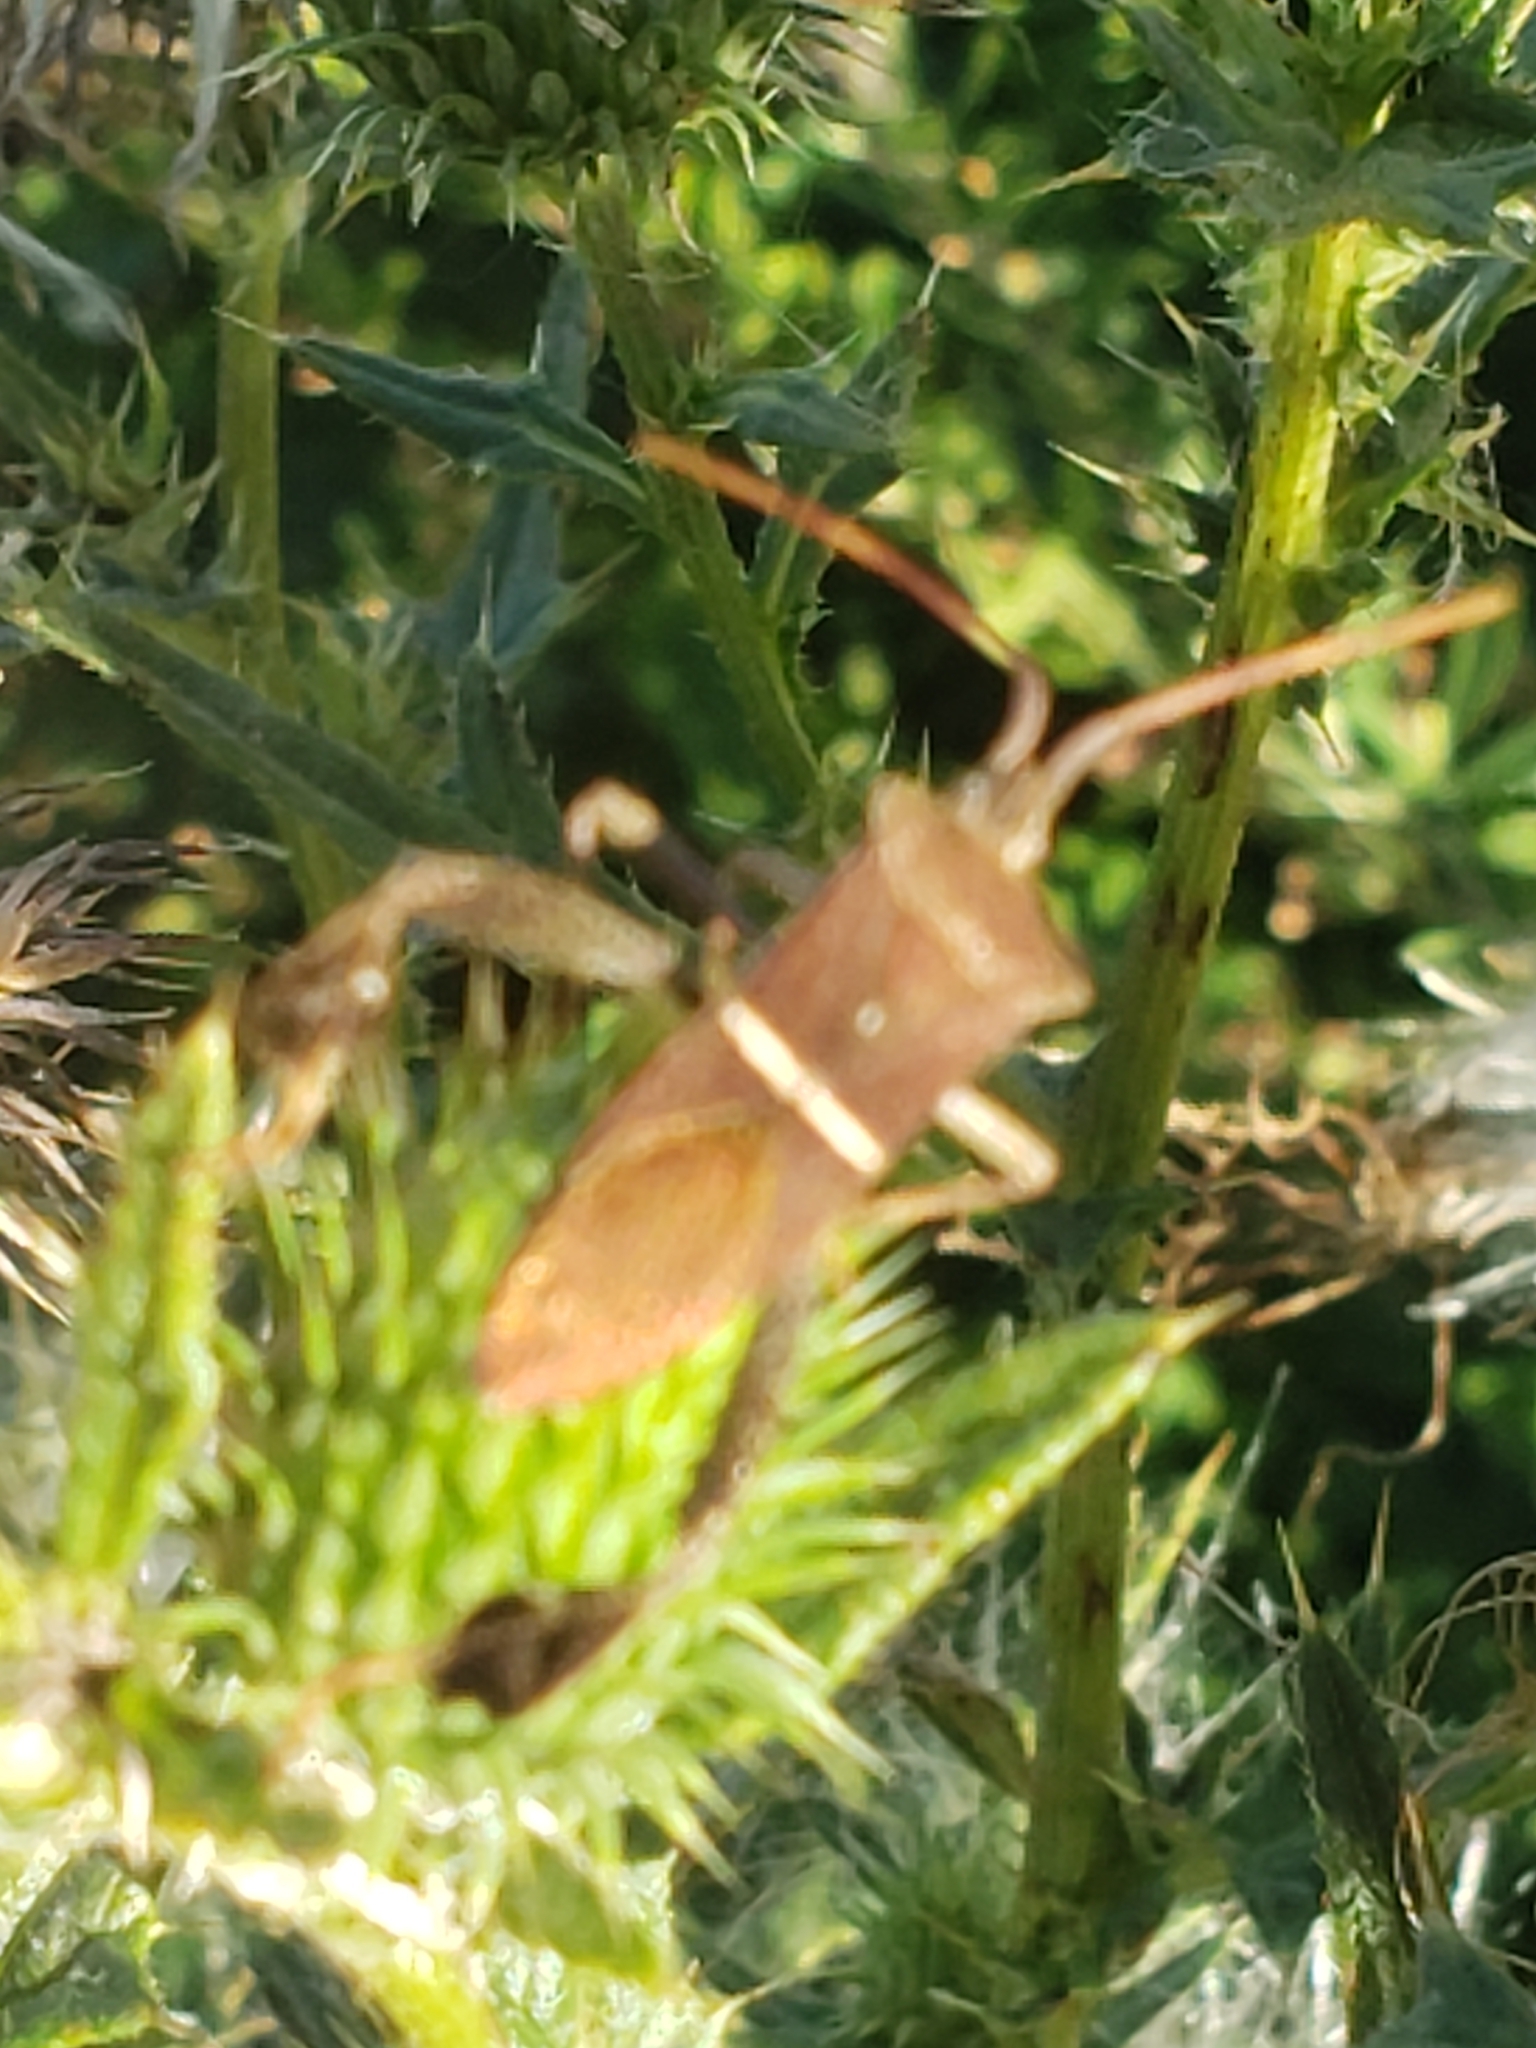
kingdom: Animalia
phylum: Arthropoda
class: Insecta
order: Hemiptera
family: Coreidae
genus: Leptoglossus
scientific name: Leptoglossus phyllopus
